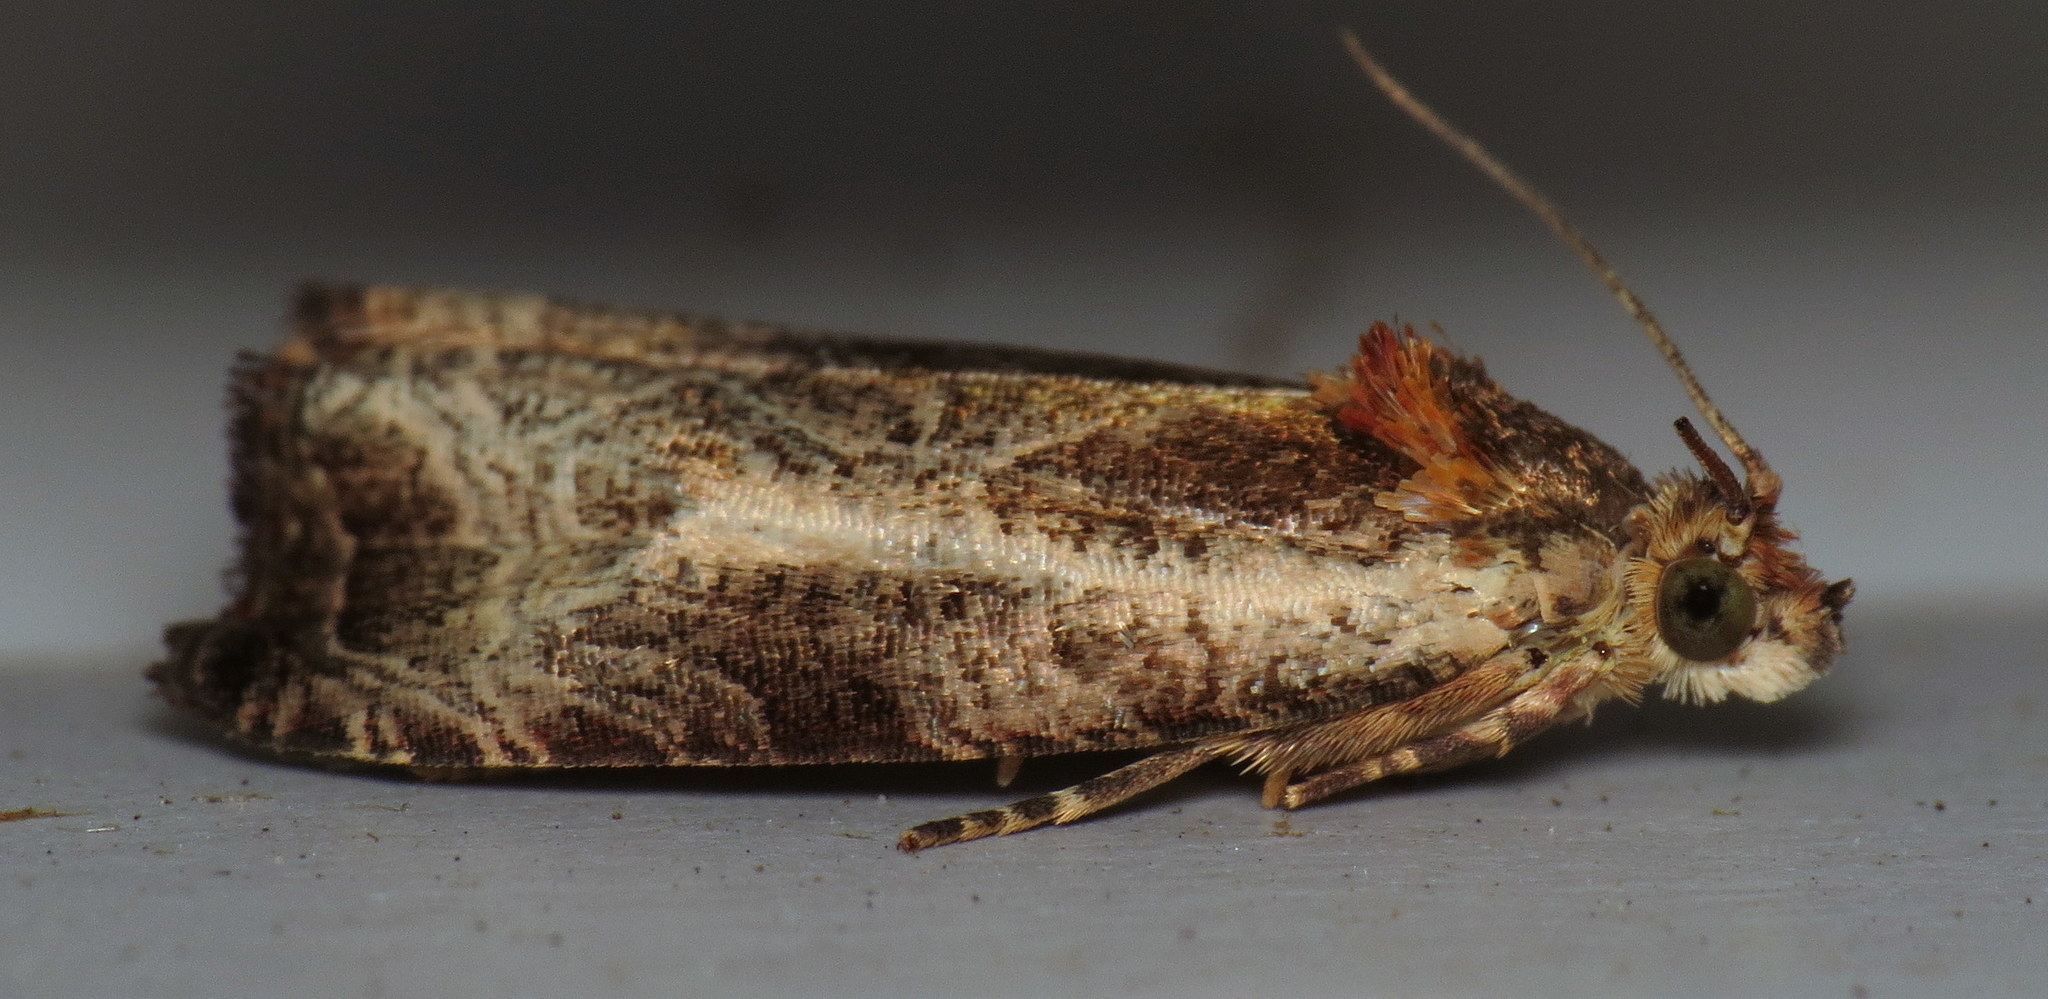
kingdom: Animalia
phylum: Arthropoda
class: Insecta
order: Lepidoptera
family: Tortricidae
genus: Olethreutes
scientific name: Olethreutes inornatana
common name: Inornate olethreutes moth
